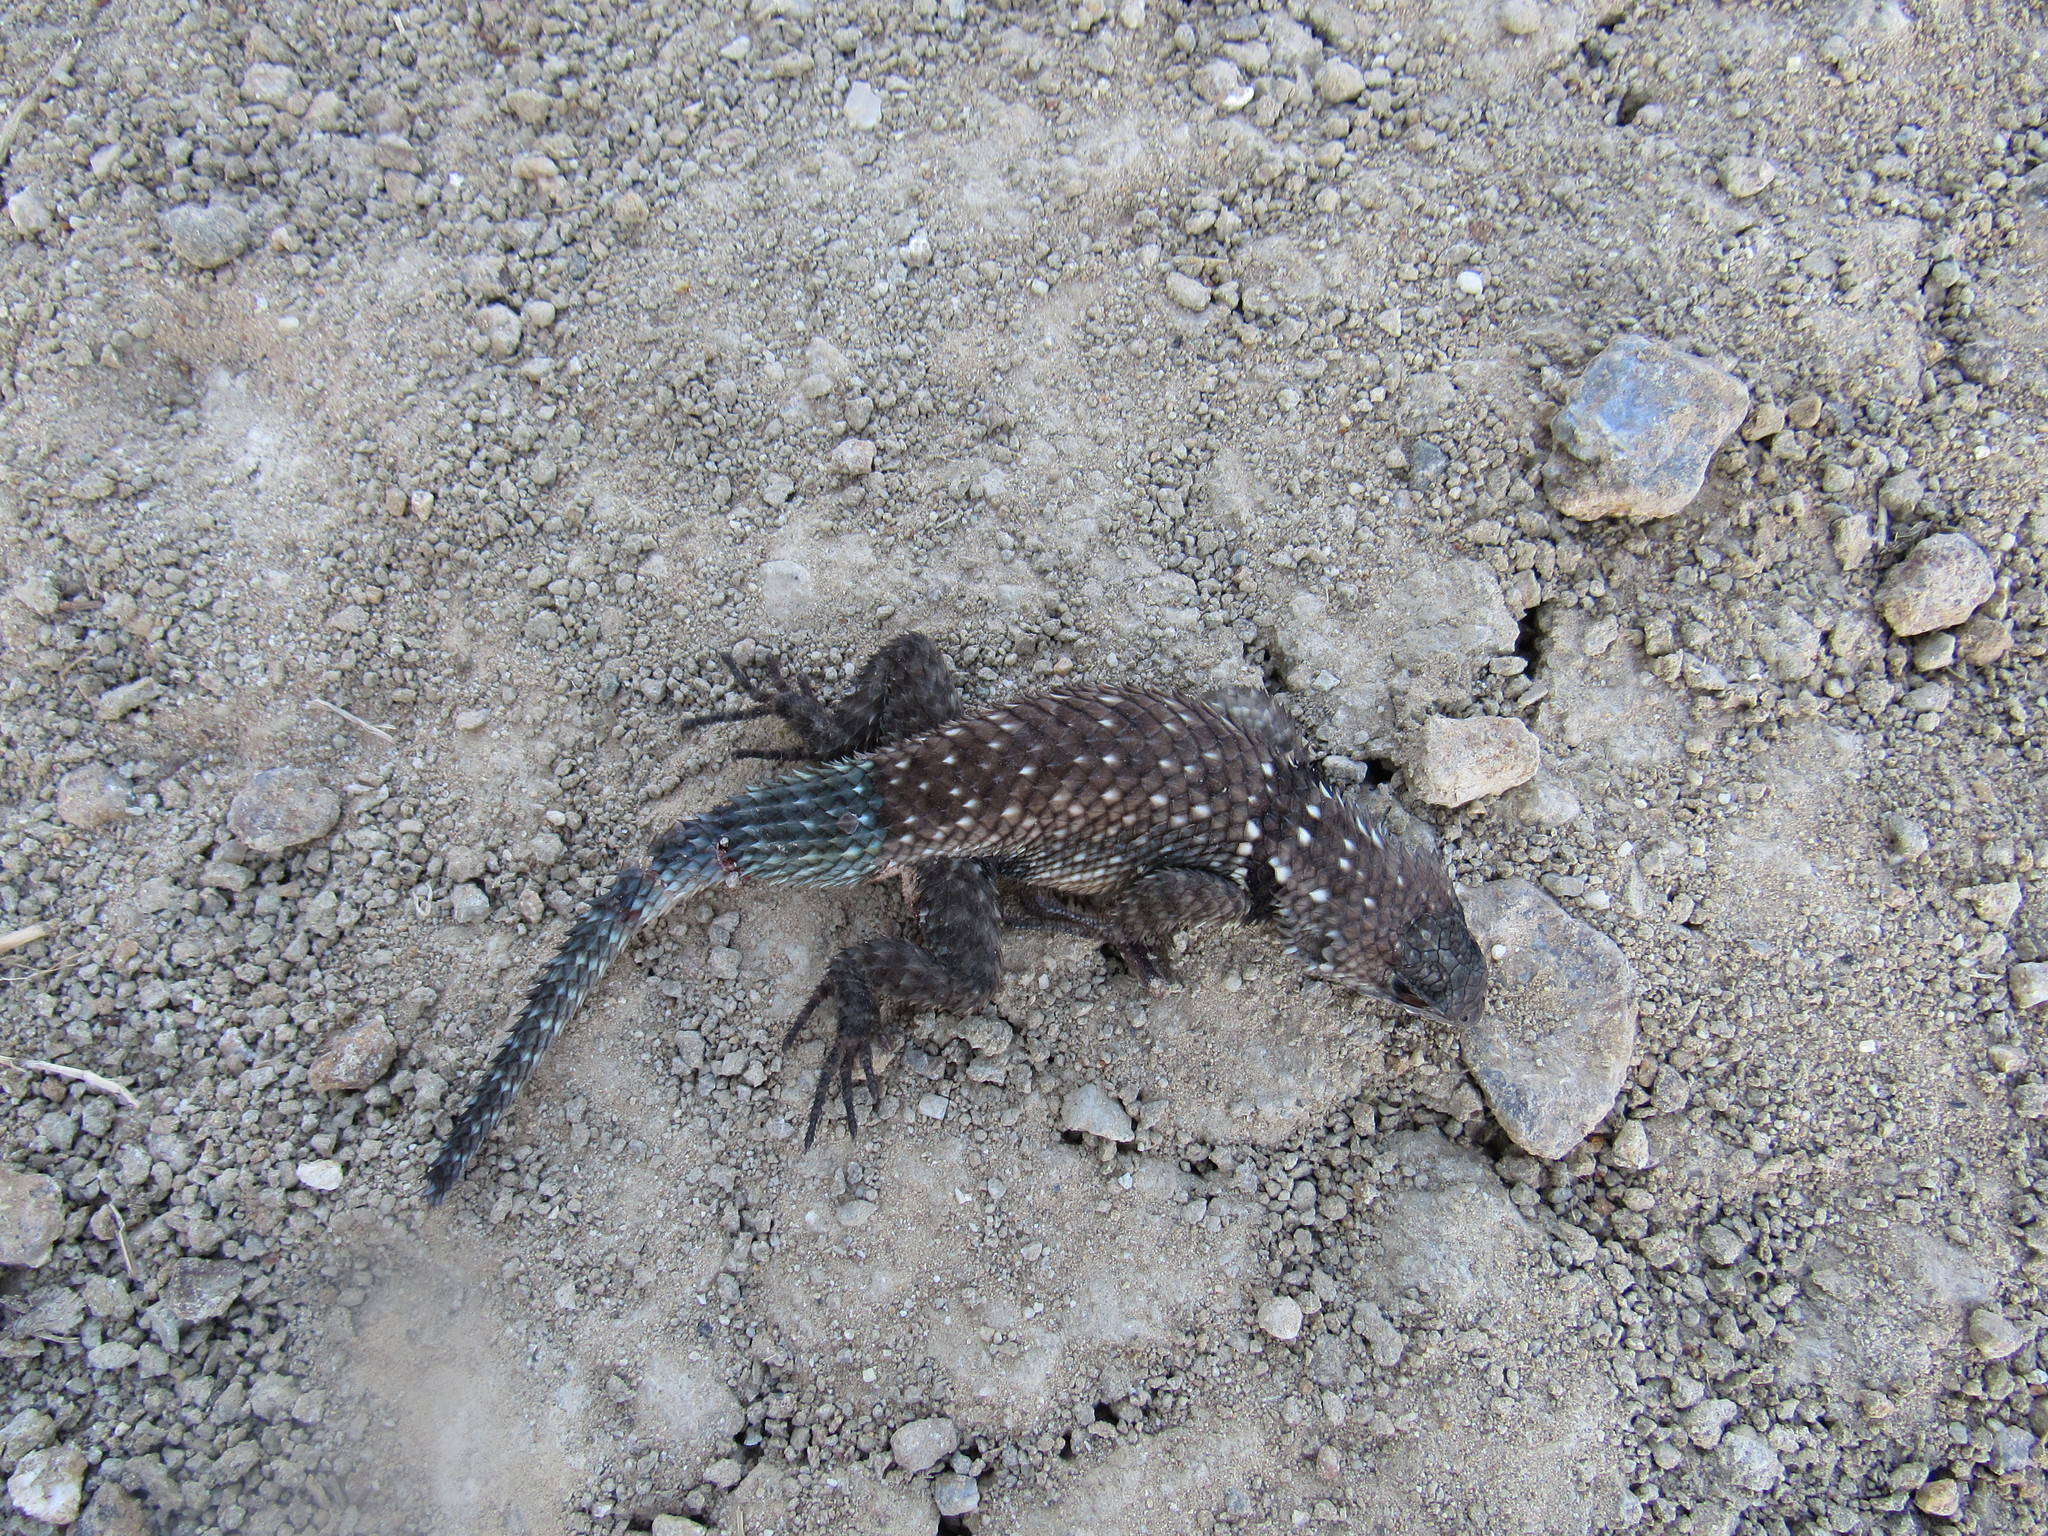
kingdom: Animalia
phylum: Chordata
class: Squamata
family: Phrynosomatidae
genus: Sceloporus
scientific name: Sceloporus torquatus
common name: Central plateau torquate lizard [melanogaster]
